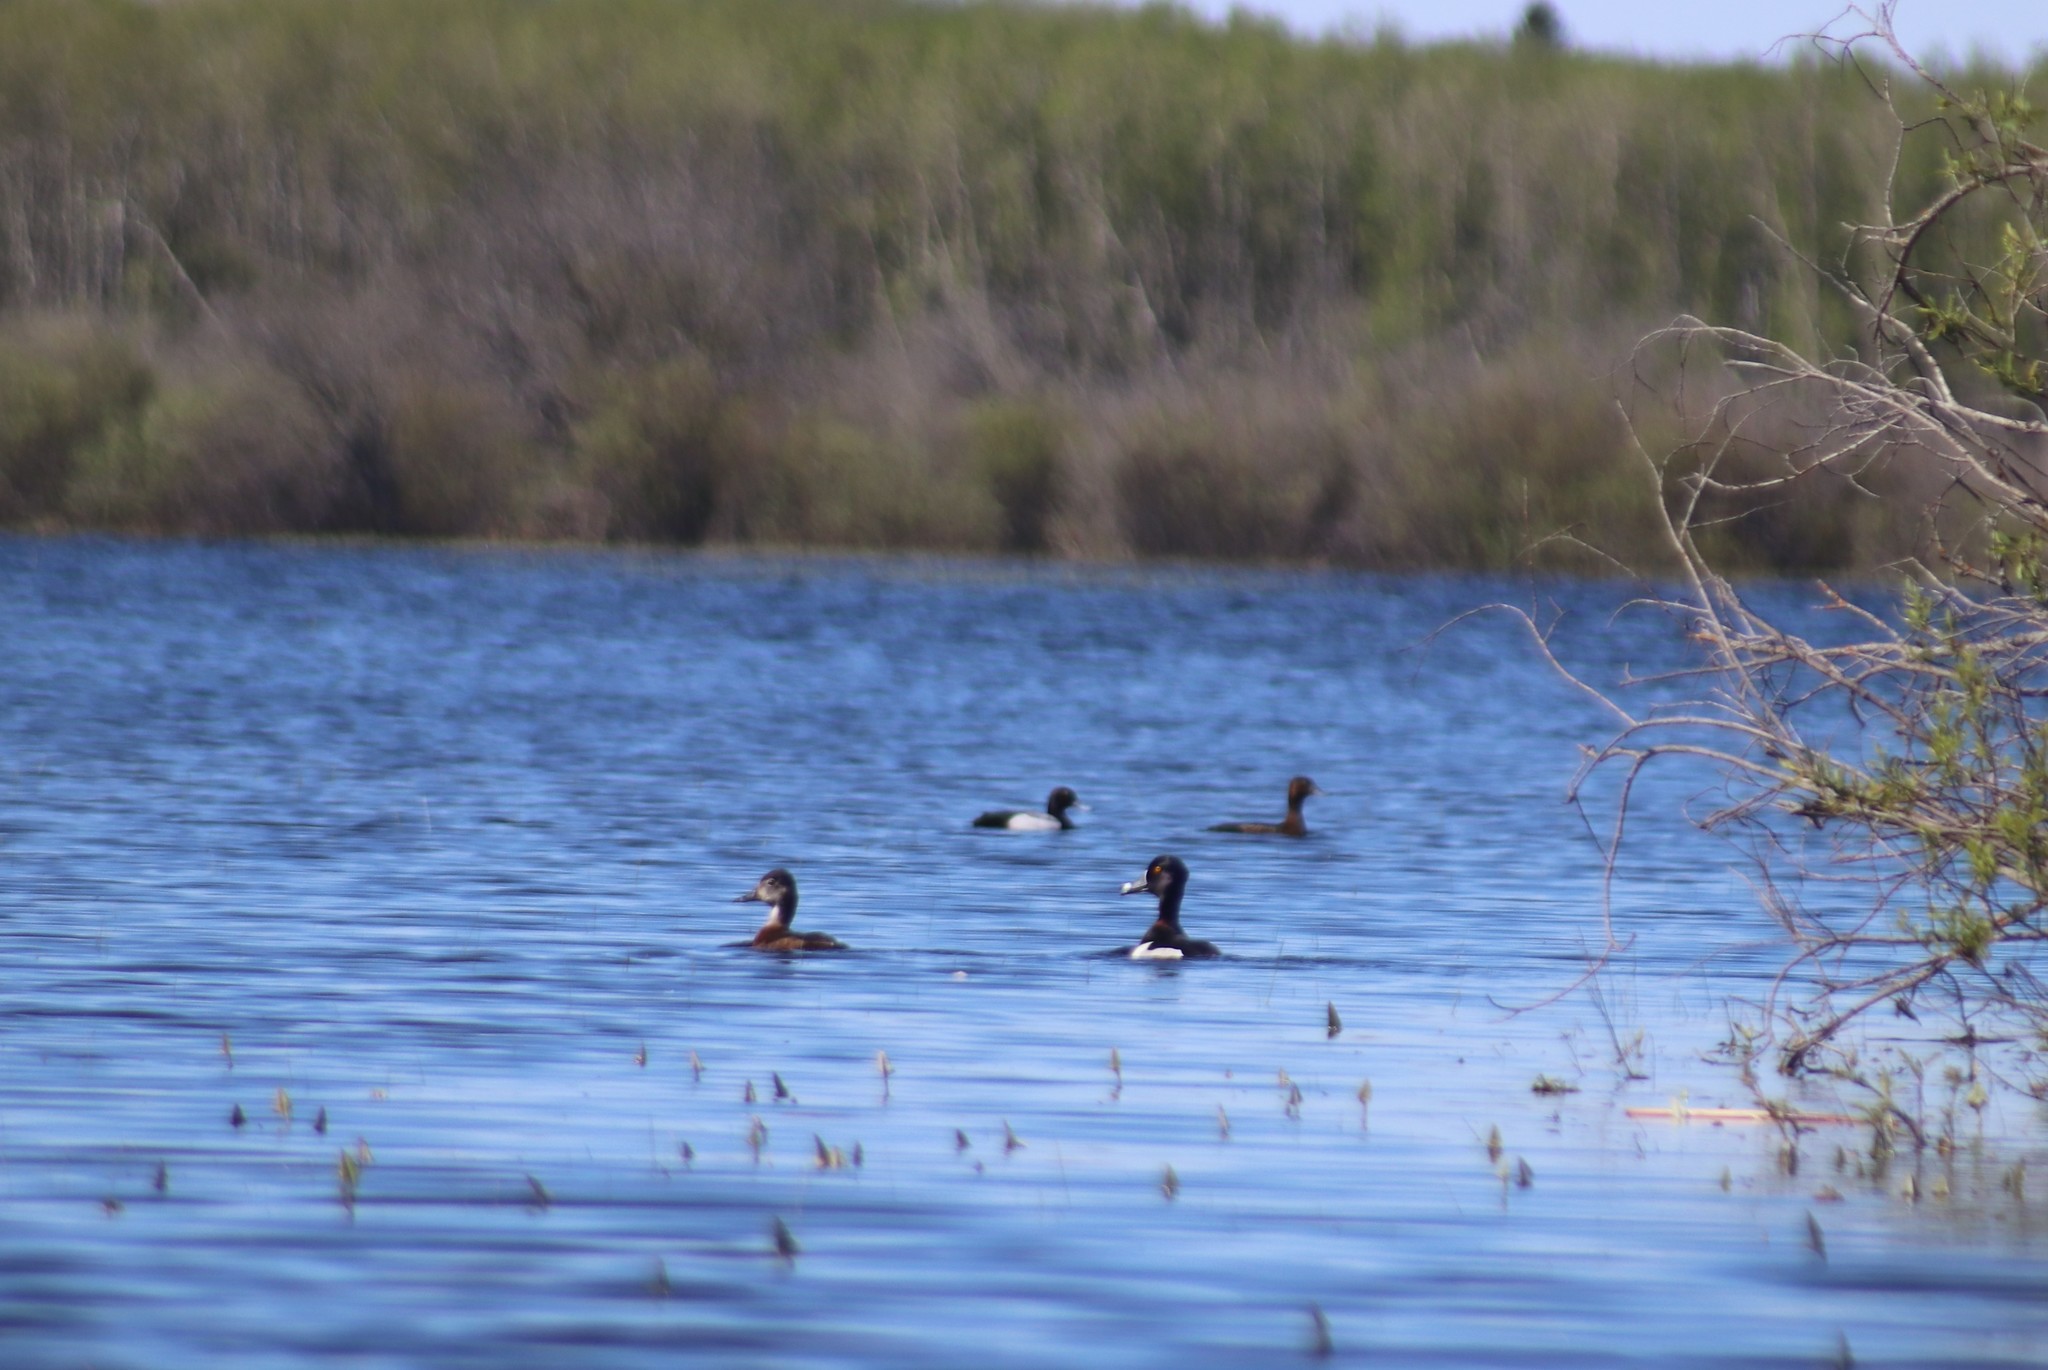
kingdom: Animalia
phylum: Chordata
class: Aves
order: Anseriformes
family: Anatidae
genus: Aythya
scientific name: Aythya collaris
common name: Ring-necked duck
